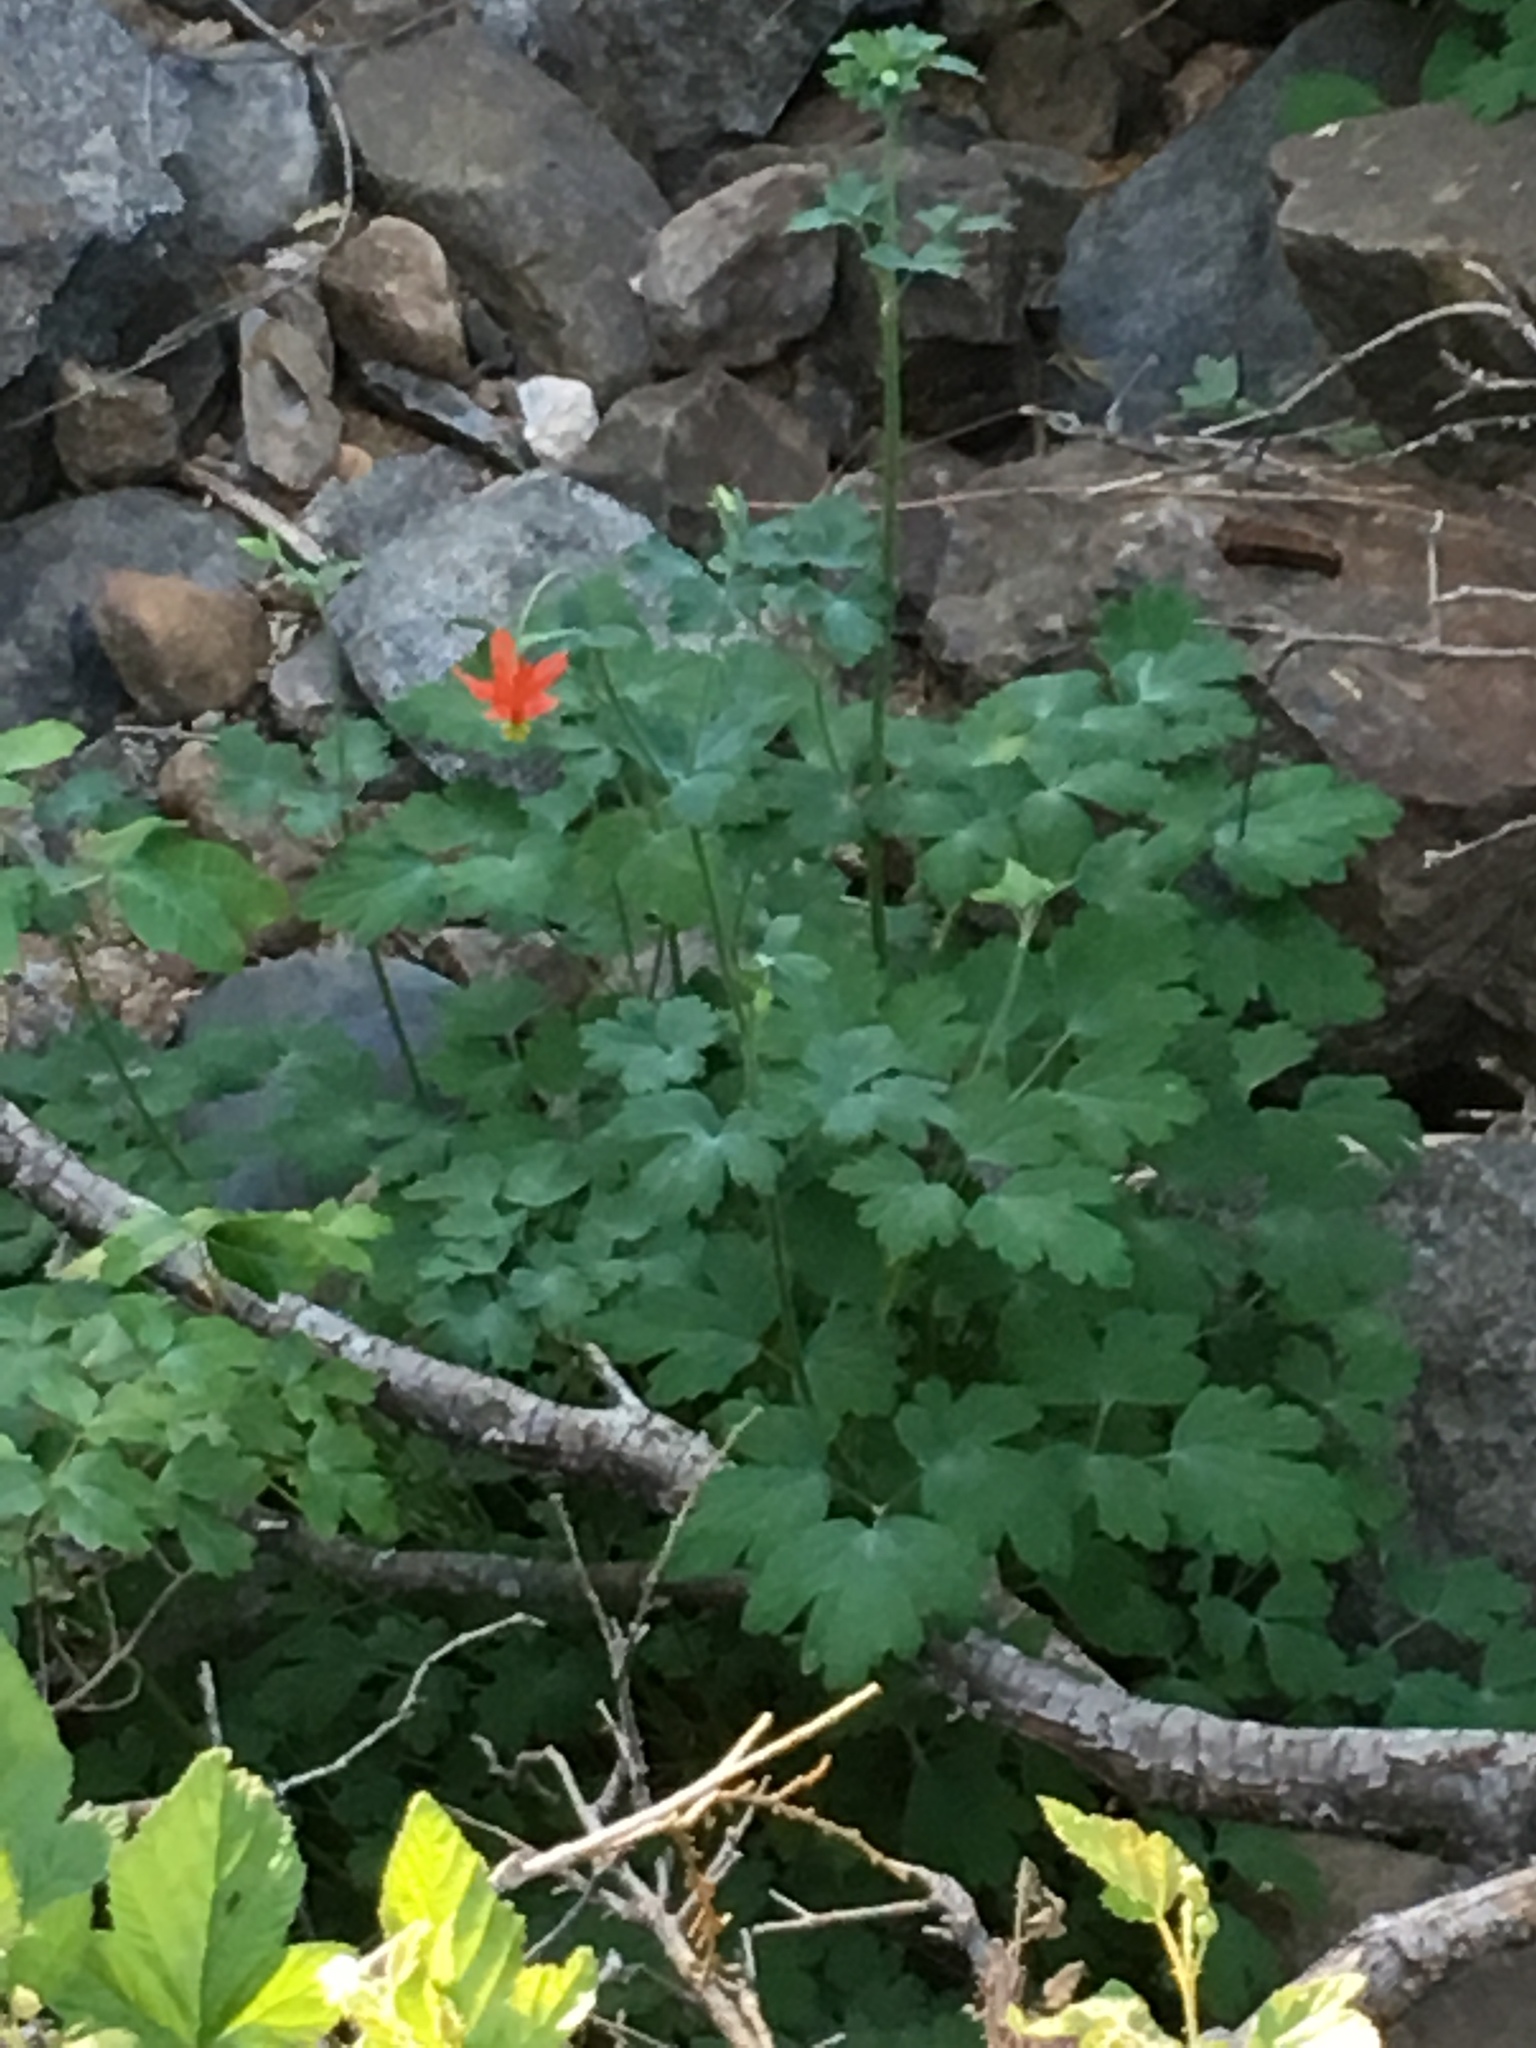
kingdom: Plantae
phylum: Tracheophyta
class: Magnoliopsida
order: Ranunculales
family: Ranunculaceae
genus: Aquilegia
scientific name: Aquilegia formosa
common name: Sitka columbine
